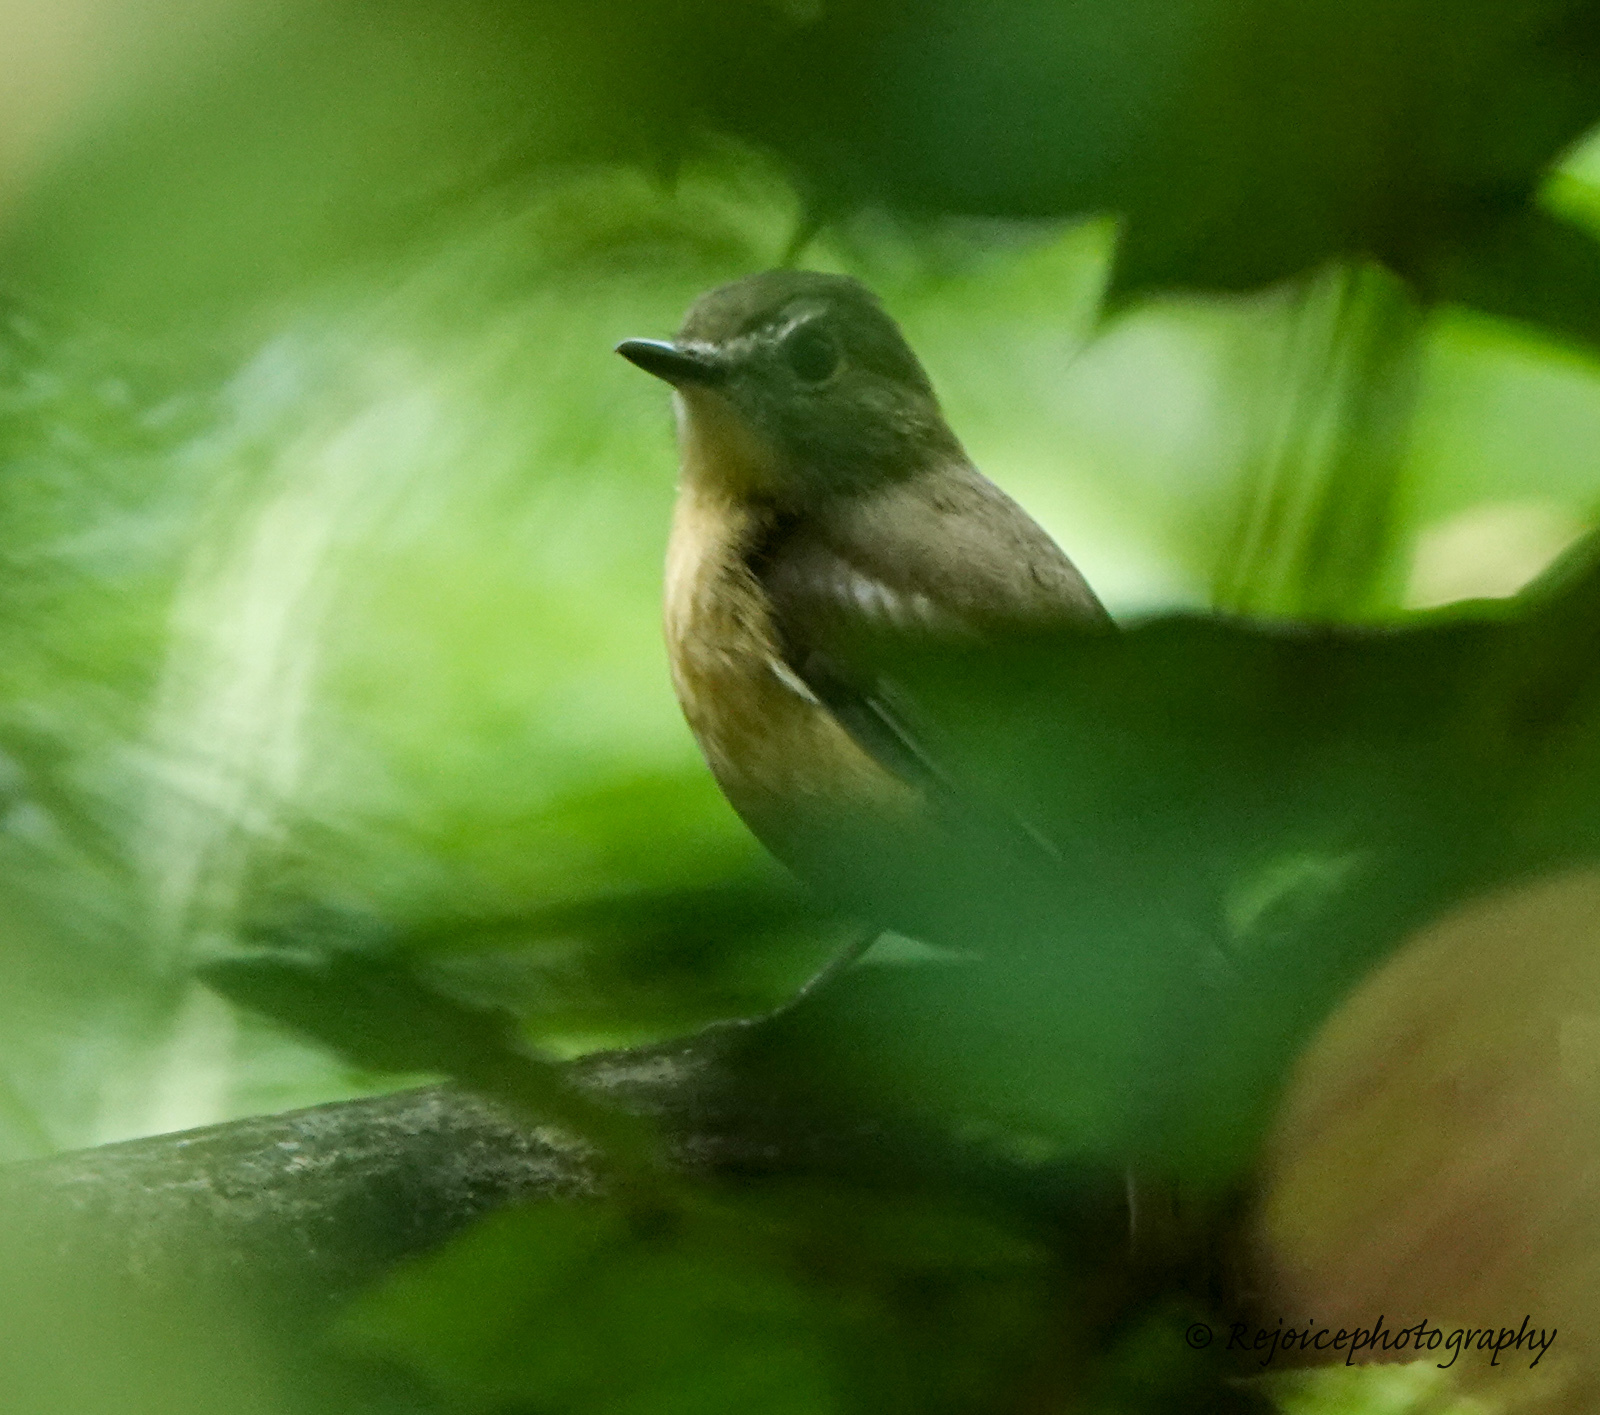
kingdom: Animalia
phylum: Chordata
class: Aves
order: Passeriformes
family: Muscicapidae
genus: Cyornis
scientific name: Cyornis poliogenys
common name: Pale-chinned blue flycatcher
